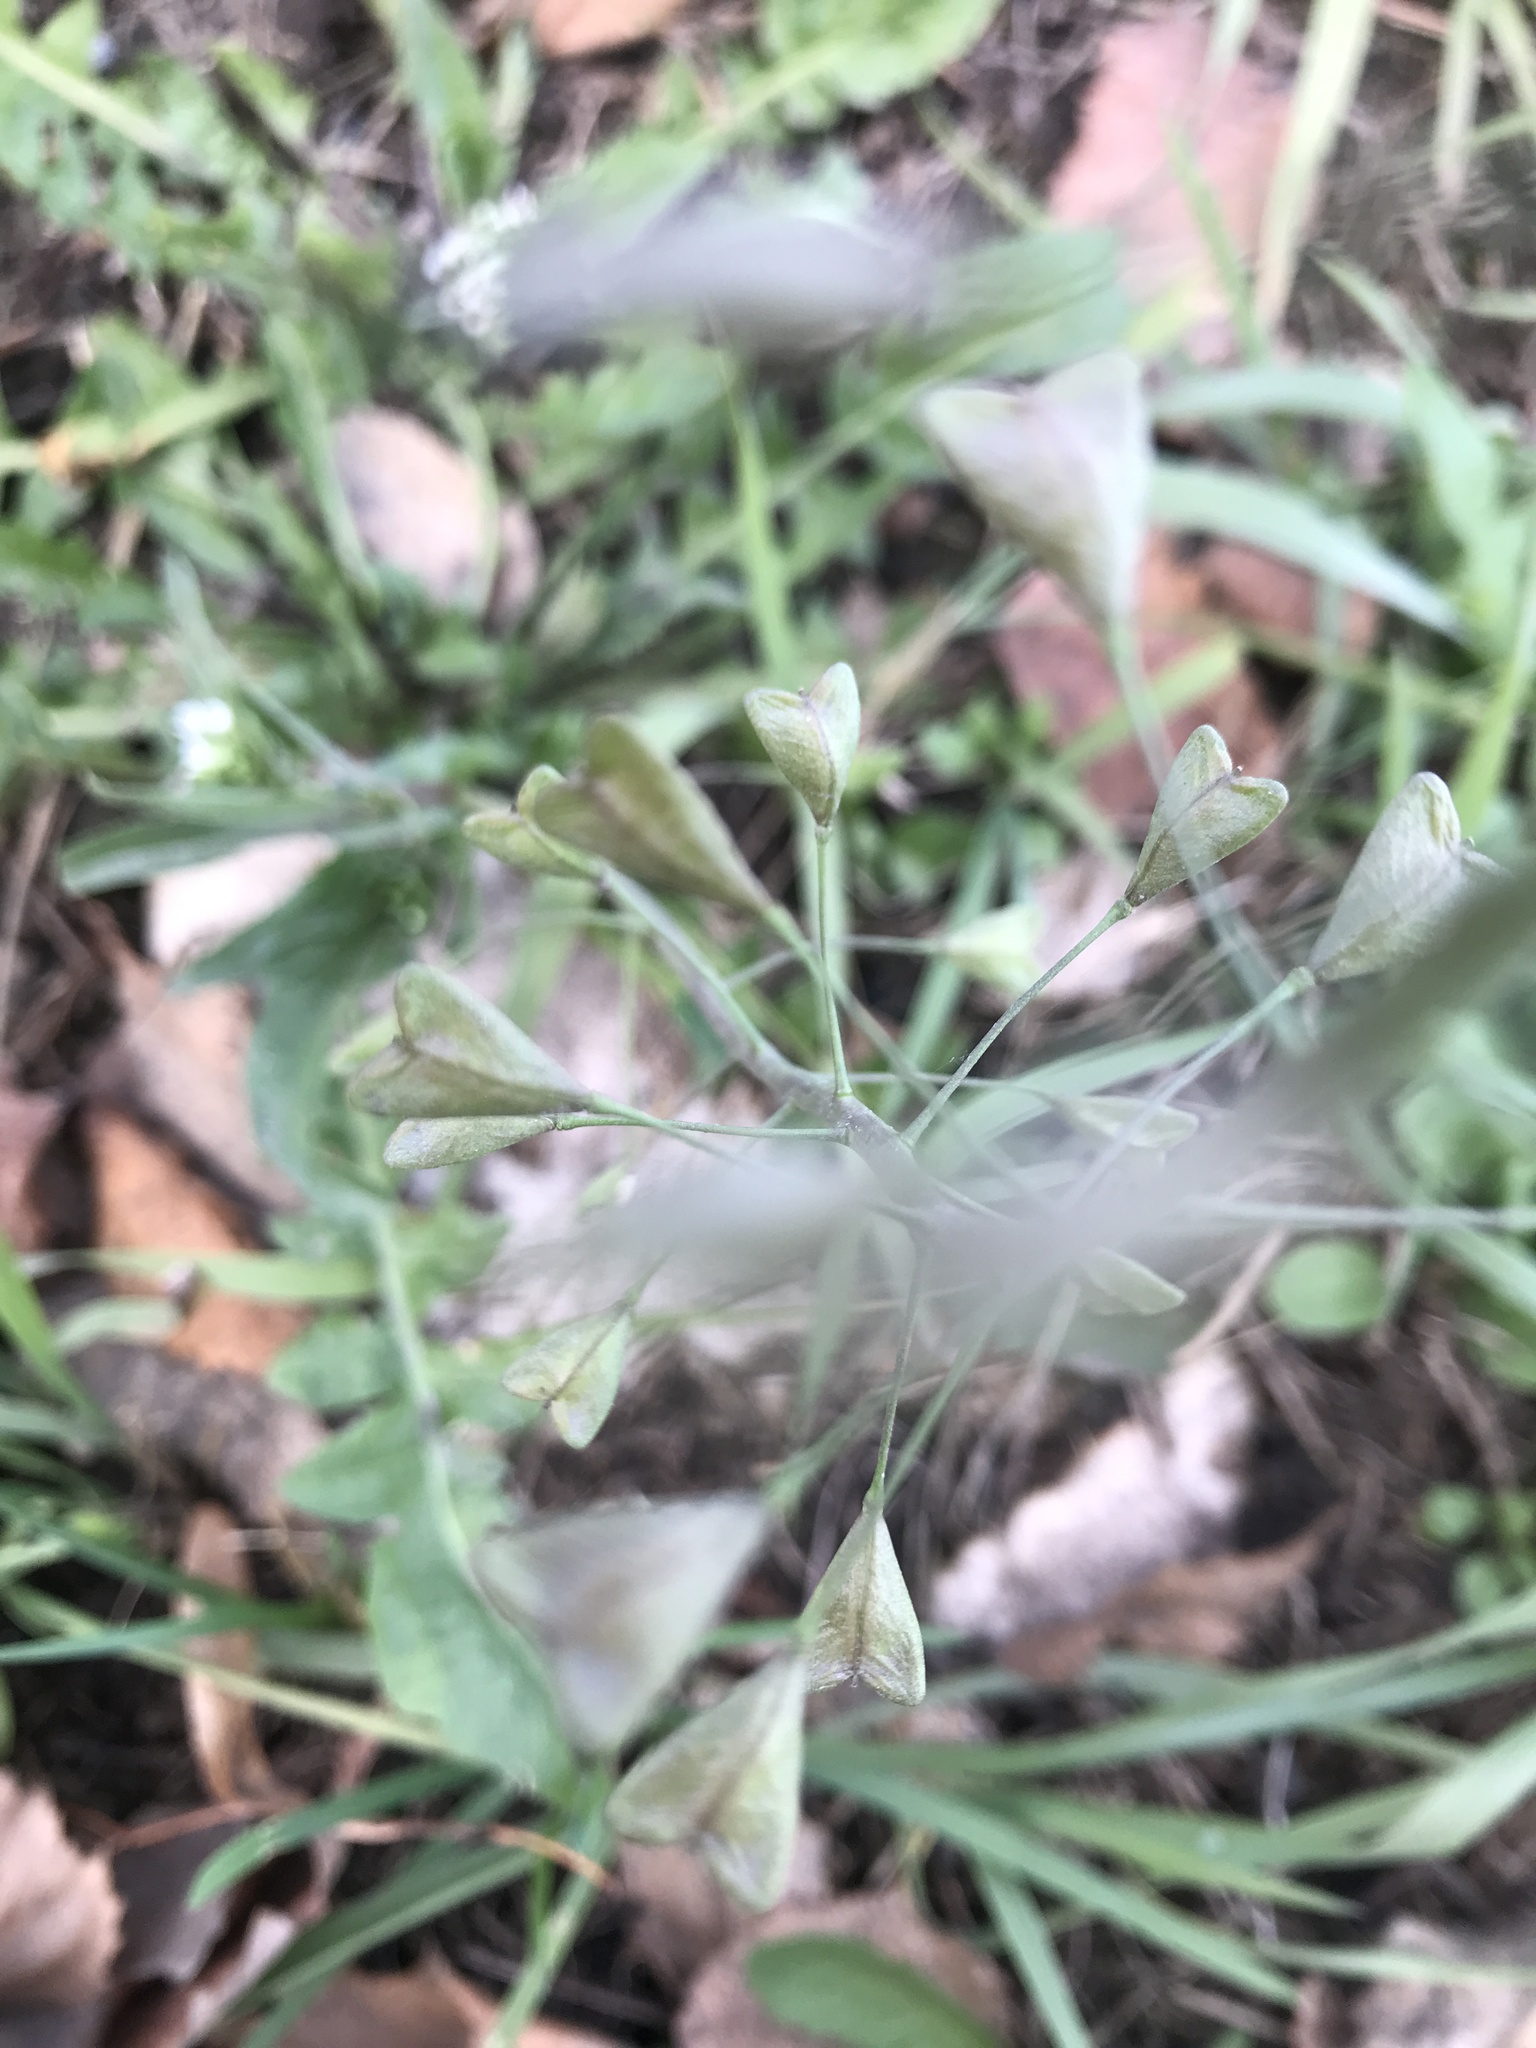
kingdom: Plantae
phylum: Tracheophyta
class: Magnoliopsida
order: Brassicales
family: Brassicaceae
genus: Capsella
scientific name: Capsella bursa-pastoris
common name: Shepherd's purse
